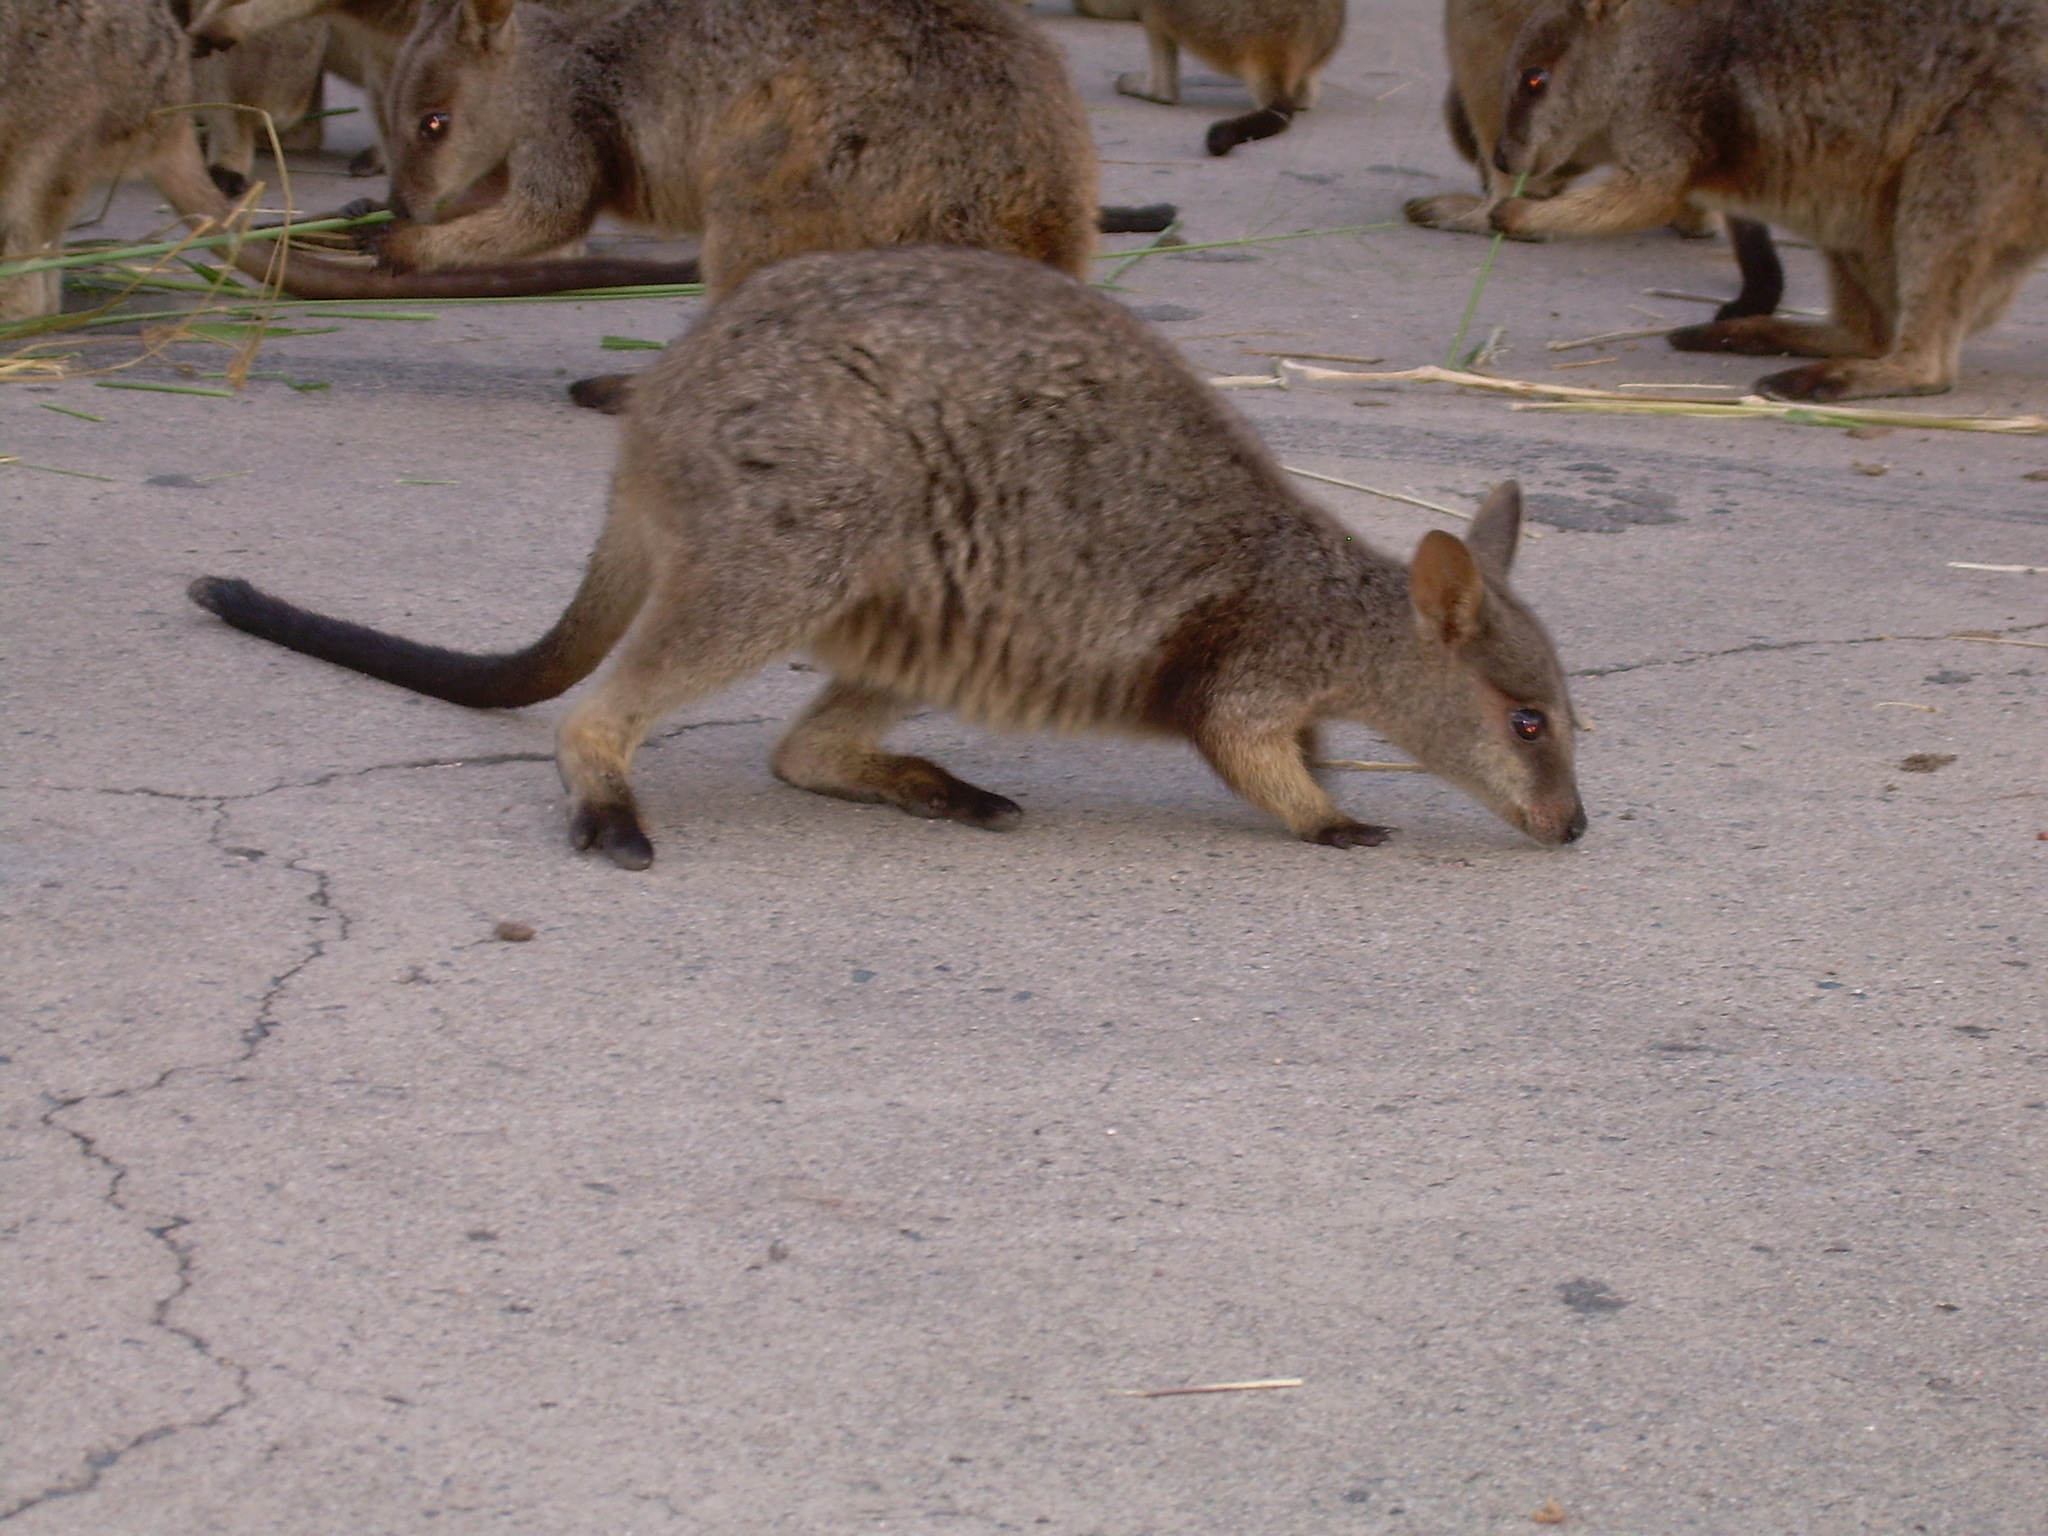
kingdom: Animalia
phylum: Chordata
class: Mammalia
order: Diprotodontia
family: Macropodidae
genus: Petrogale
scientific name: Petrogale assimilis
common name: Allied rock wallaby
